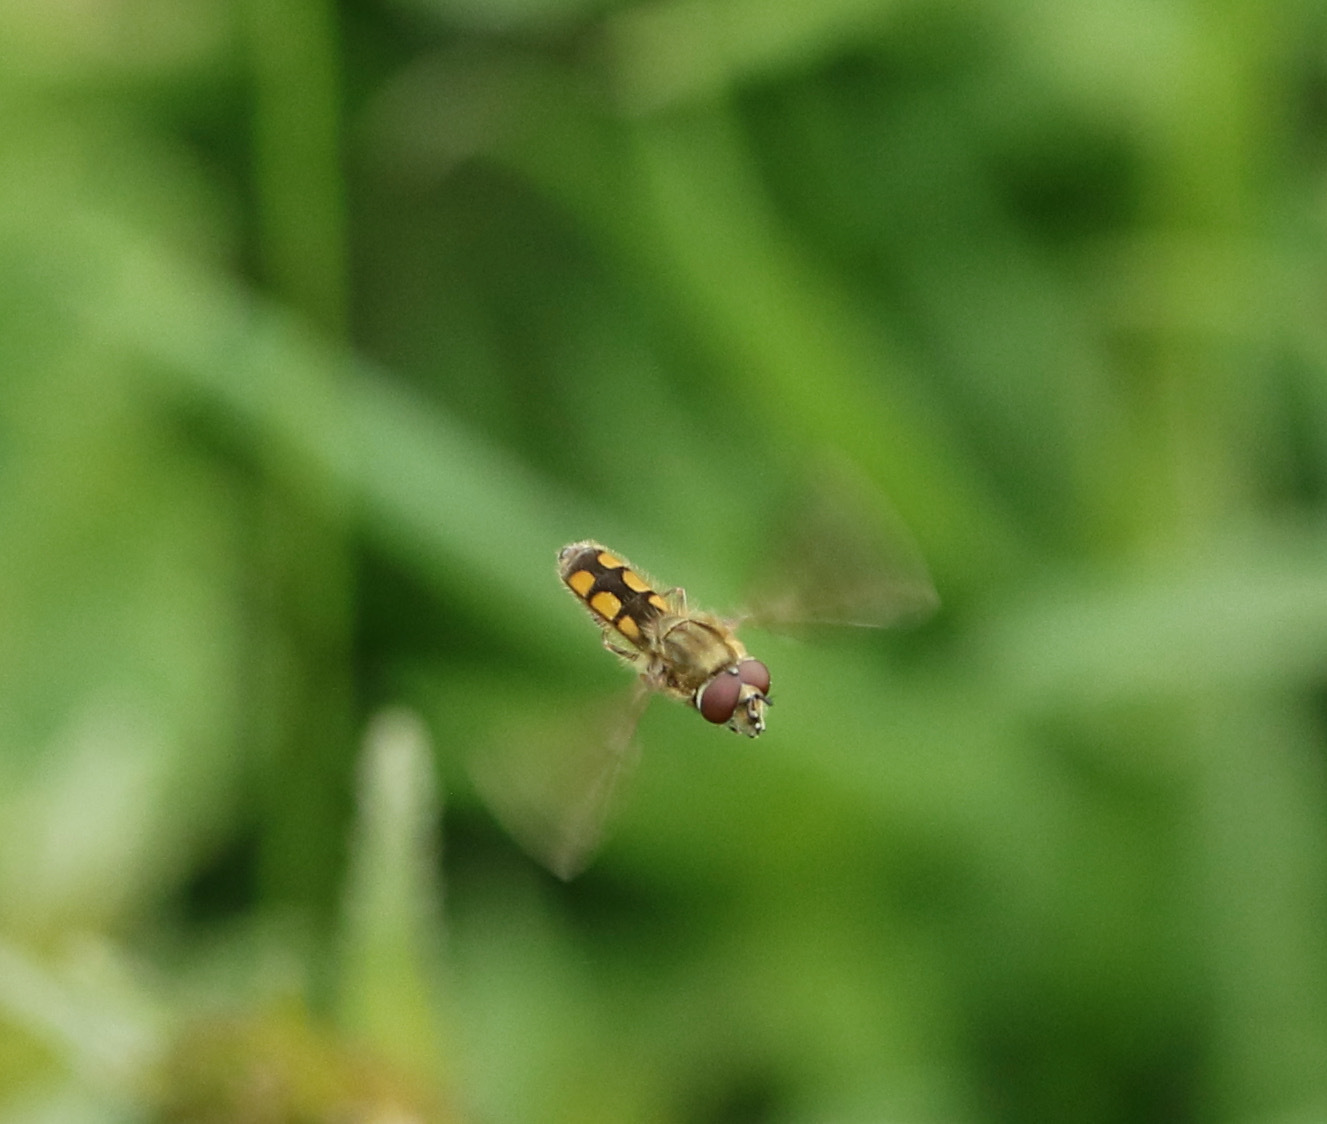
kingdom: Animalia
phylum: Arthropoda
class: Insecta
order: Diptera
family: Syrphidae
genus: Platycheirus
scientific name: Platycheirus manicatus
